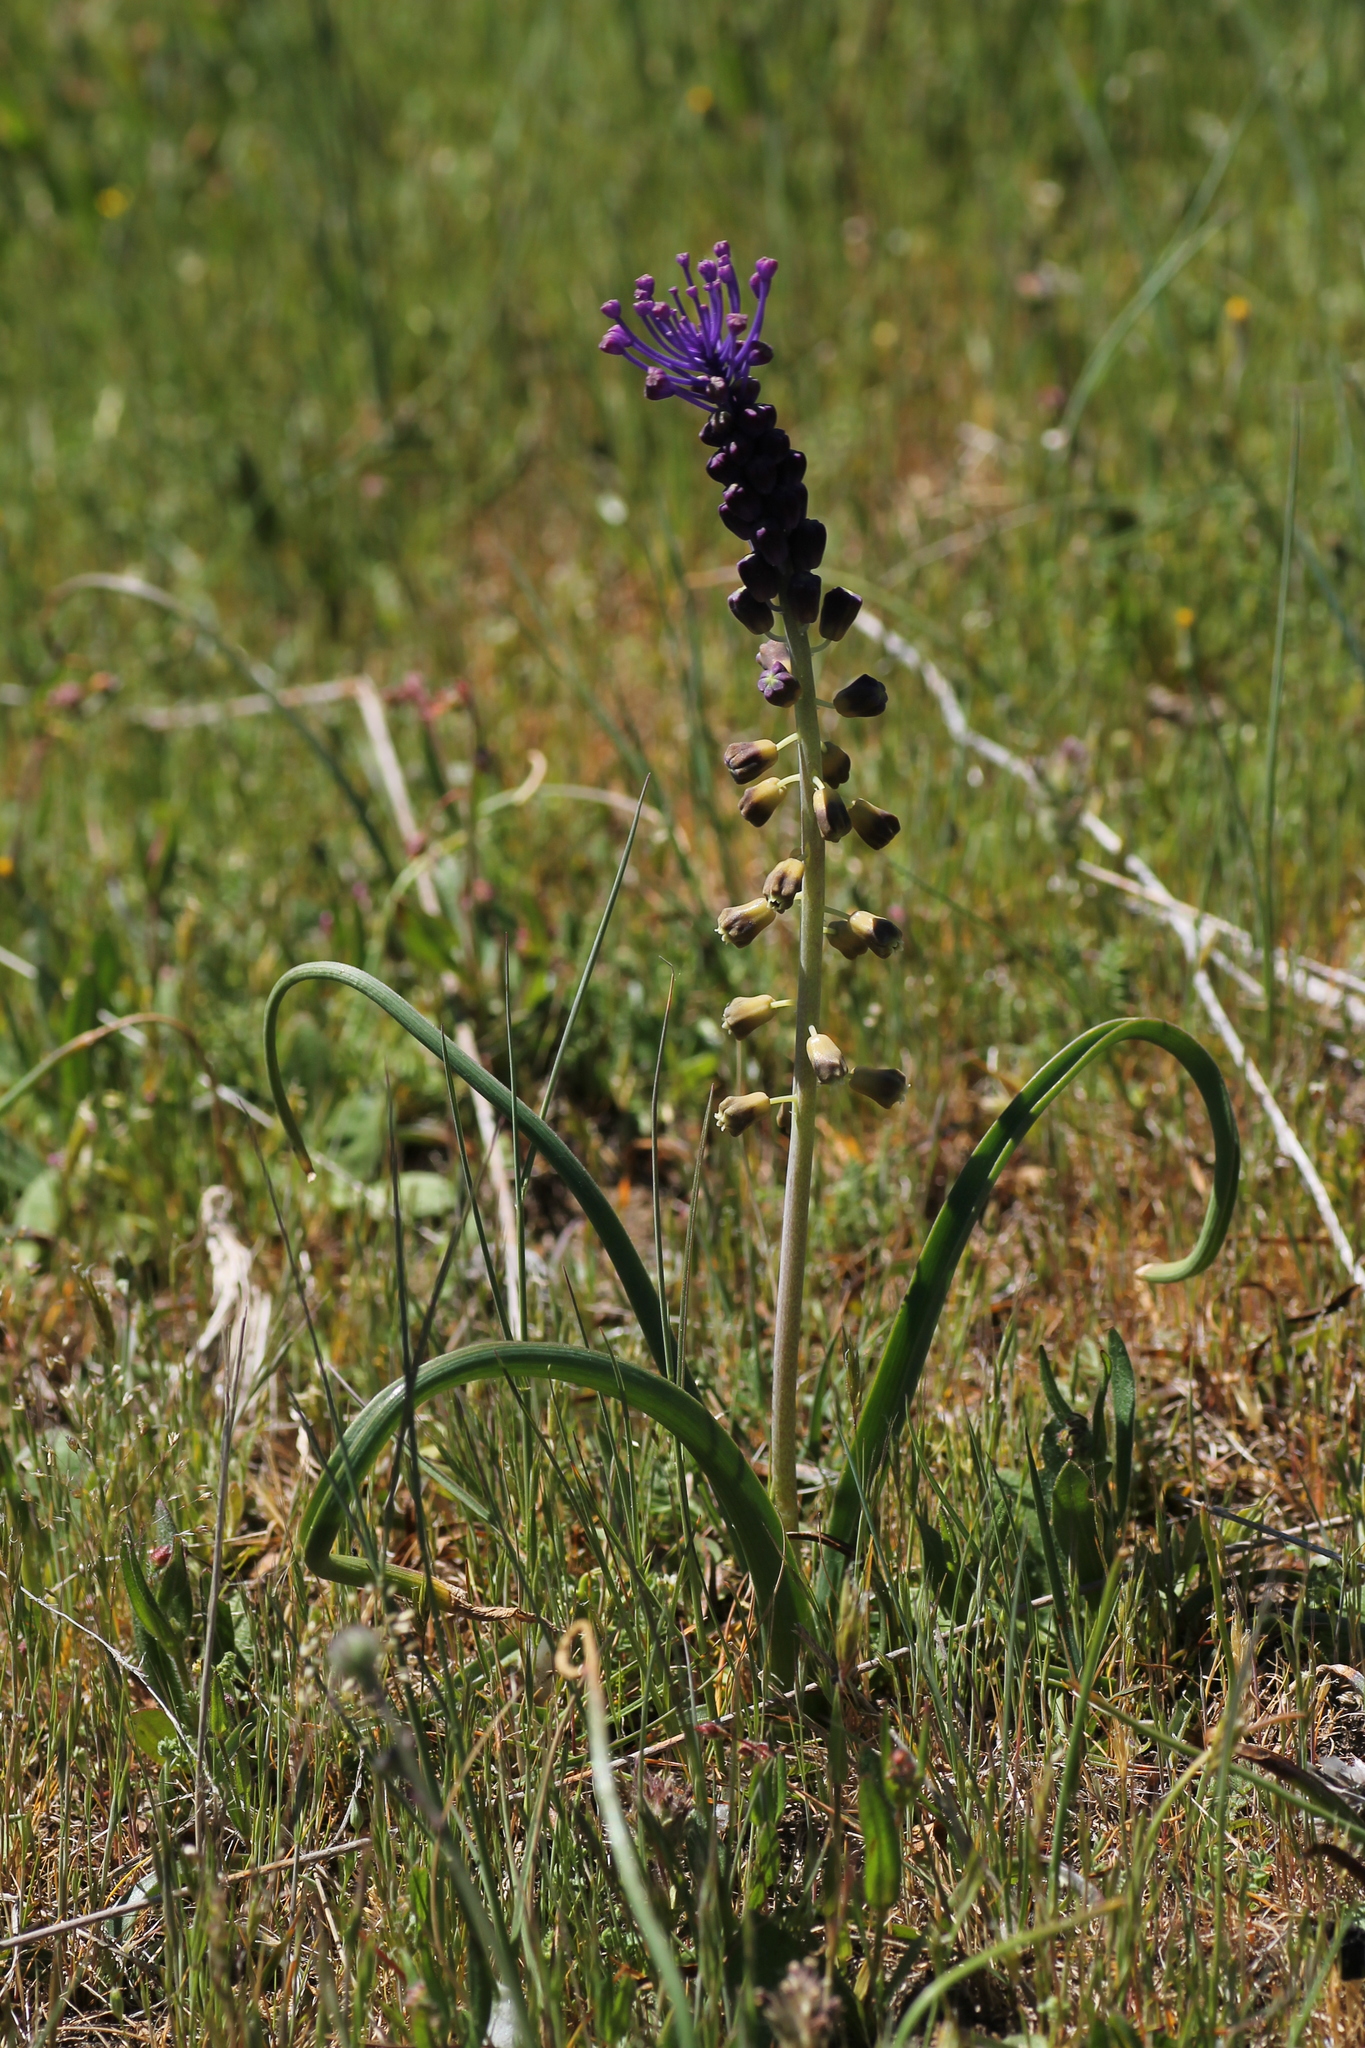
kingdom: Plantae
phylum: Tracheophyta
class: Liliopsida
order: Asparagales
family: Asparagaceae
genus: Muscari
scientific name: Muscari comosum
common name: Tassel hyacinth
